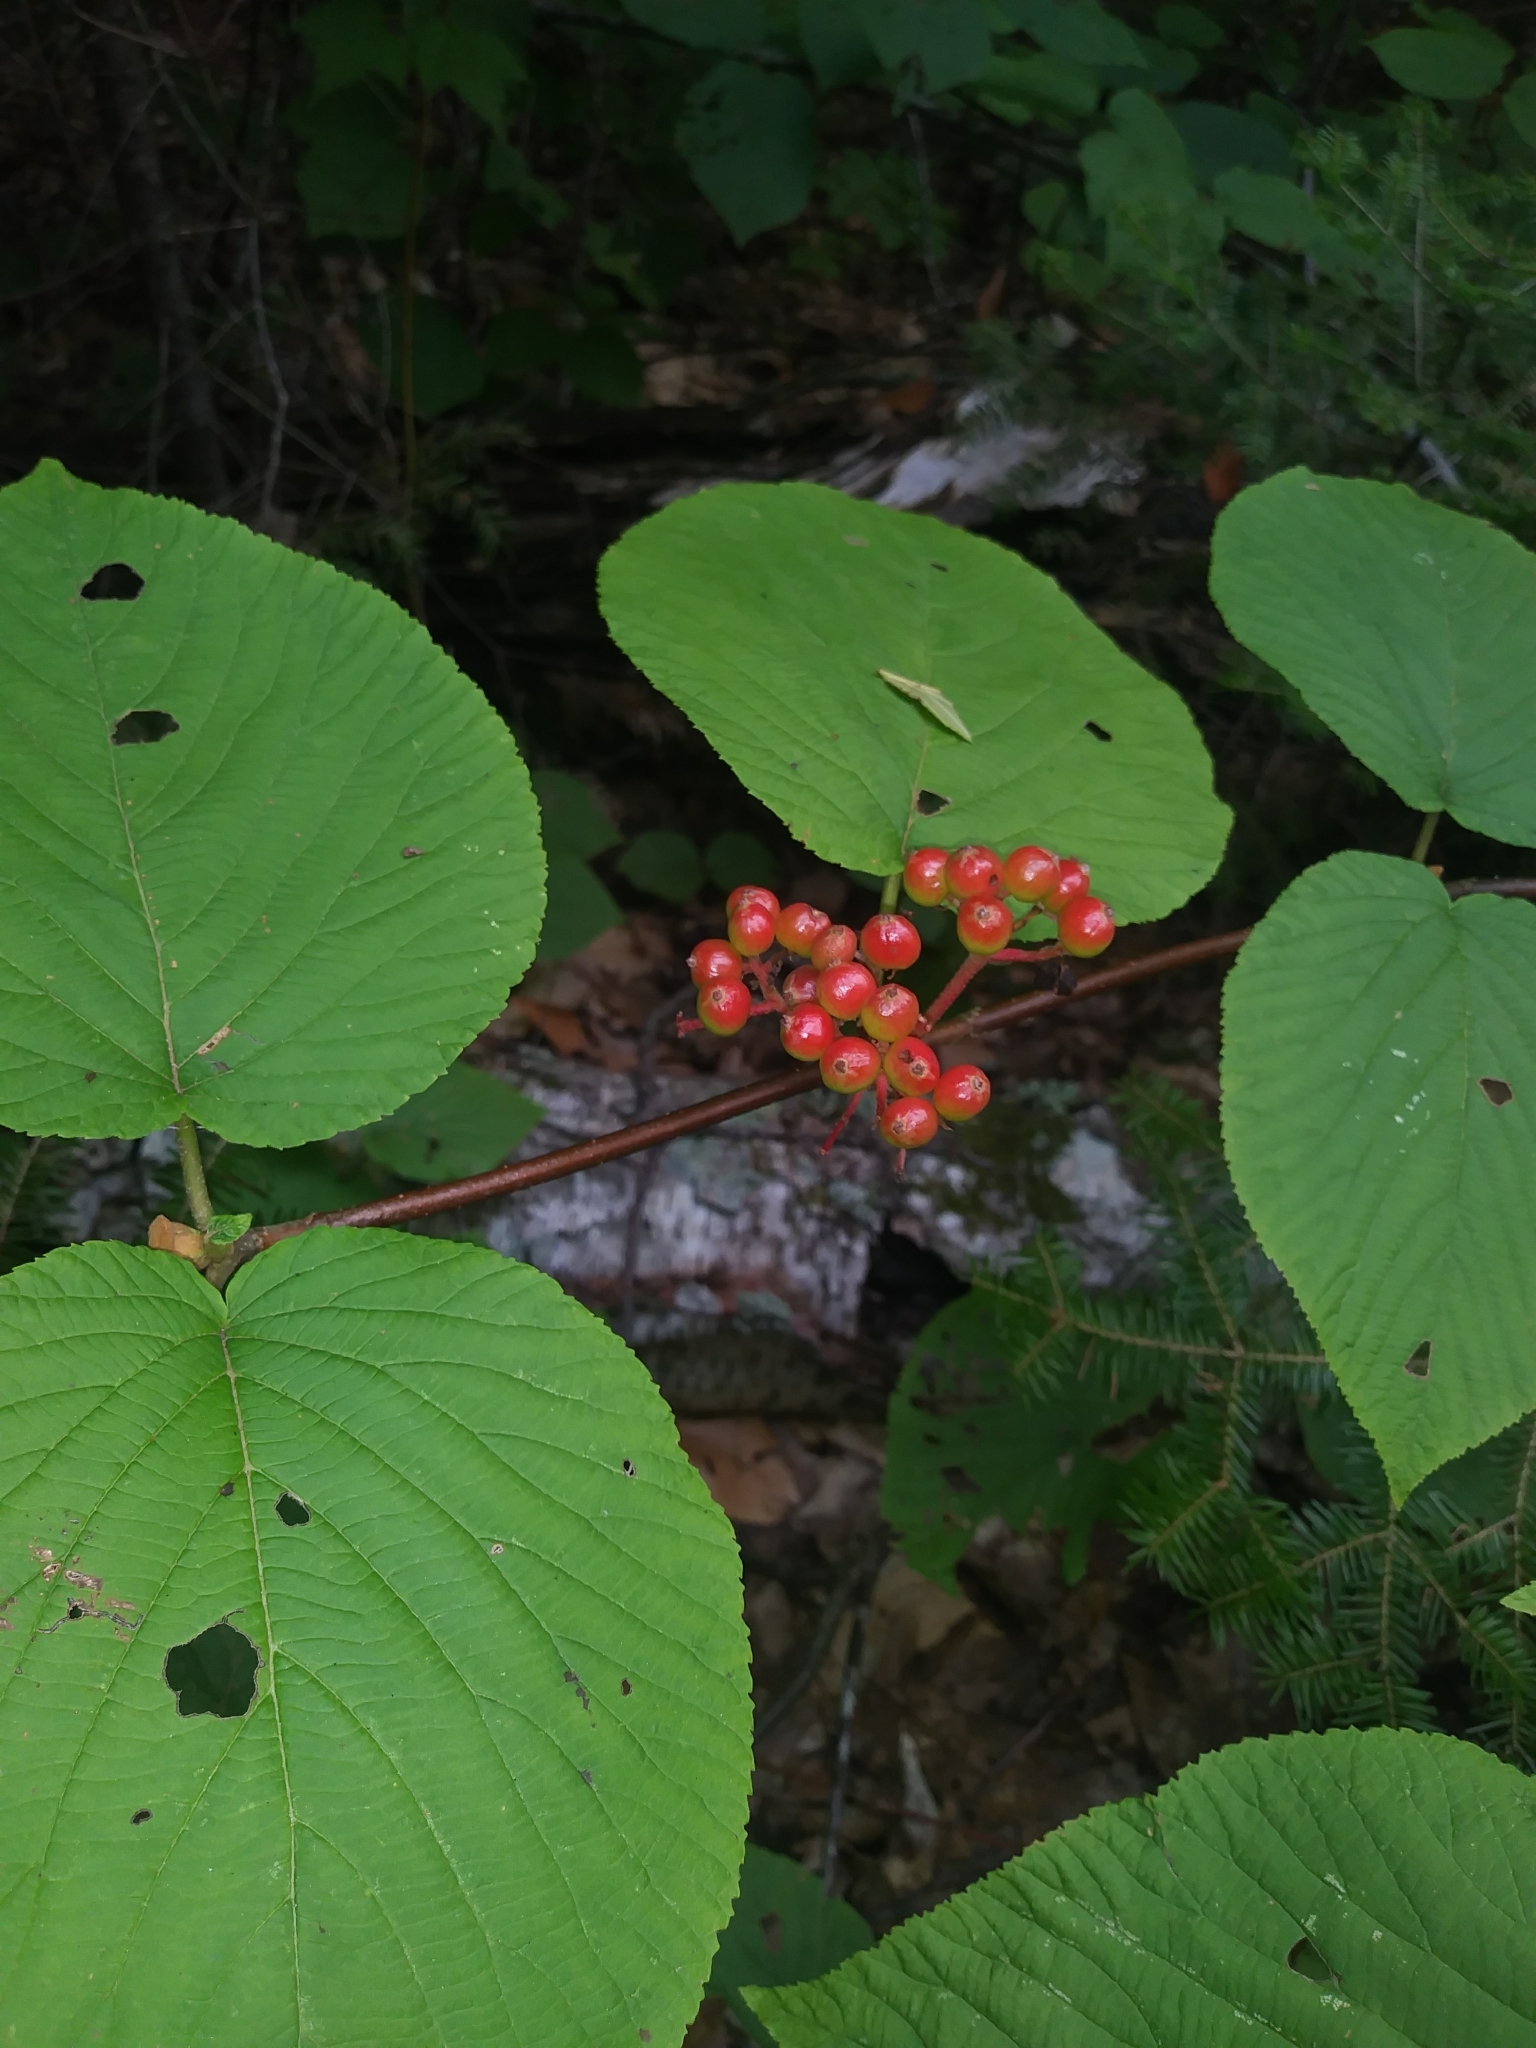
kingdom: Plantae
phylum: Tracheophyta
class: Magnoliopsida
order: Dipsacales
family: Viburnaceae
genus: Viburnum
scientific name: Viburnum lantanoides
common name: Hobblebush
